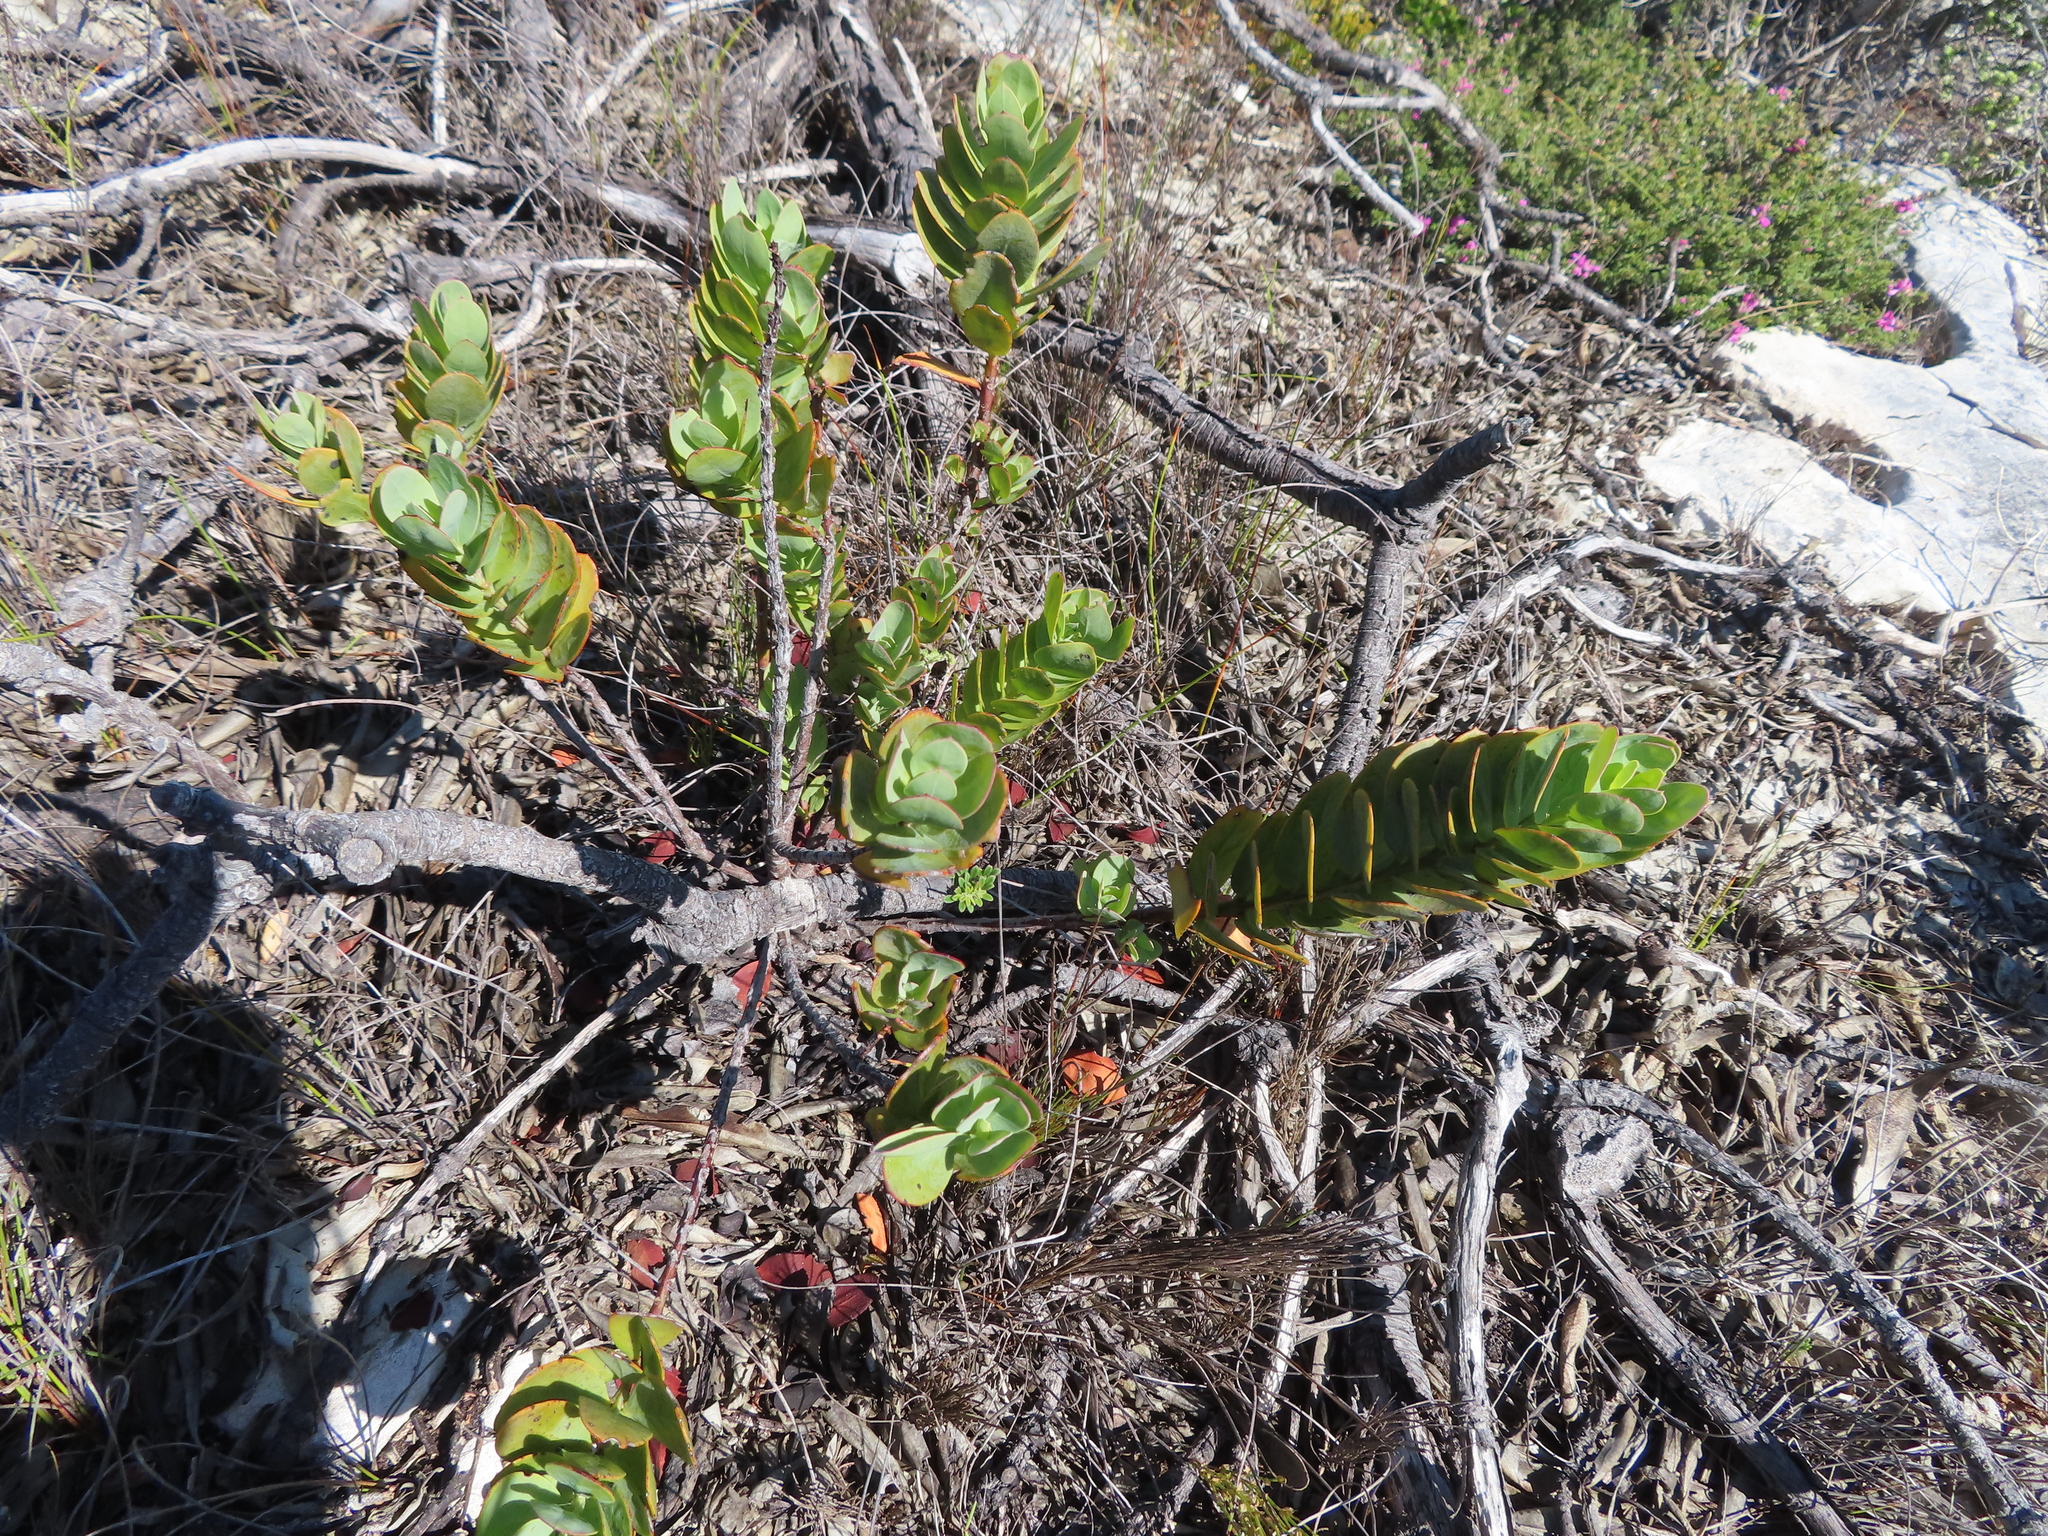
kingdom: Plantae
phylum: Tracheophyta
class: Magnoliopsida
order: Santalales
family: Santalaceae
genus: Osyris
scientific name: Osyris compressa
